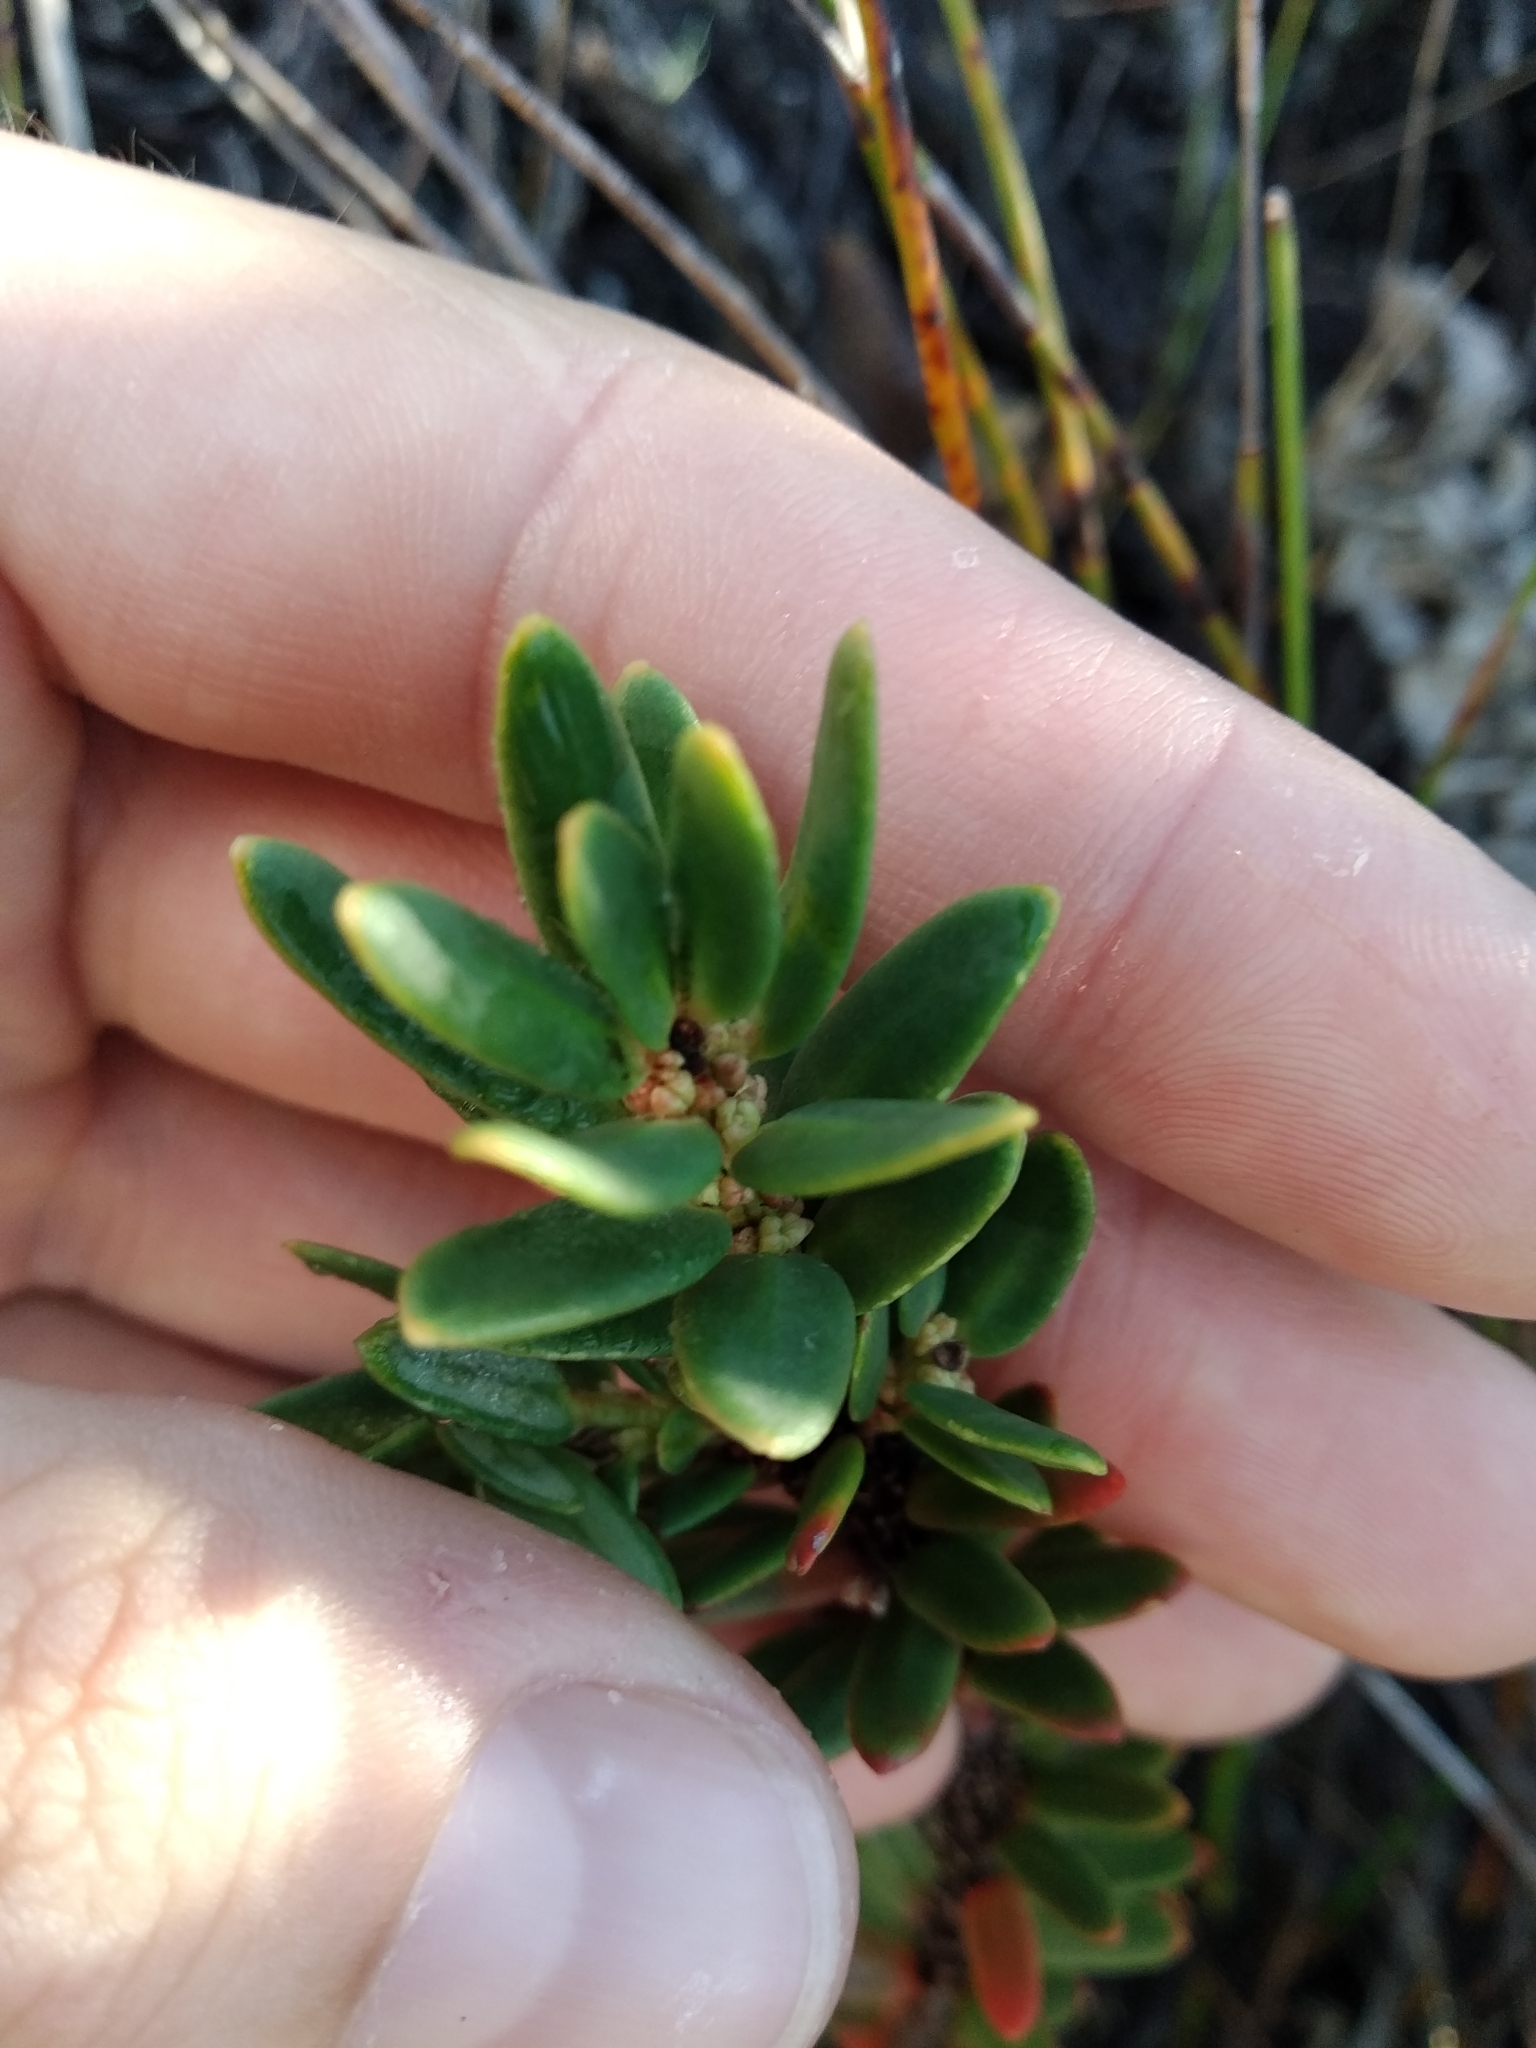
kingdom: Plantae
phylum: Tracheophyta
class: Magnoliopsida
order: Malpighiales
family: Peraceae
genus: Clutia
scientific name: Clutia polygonoides
